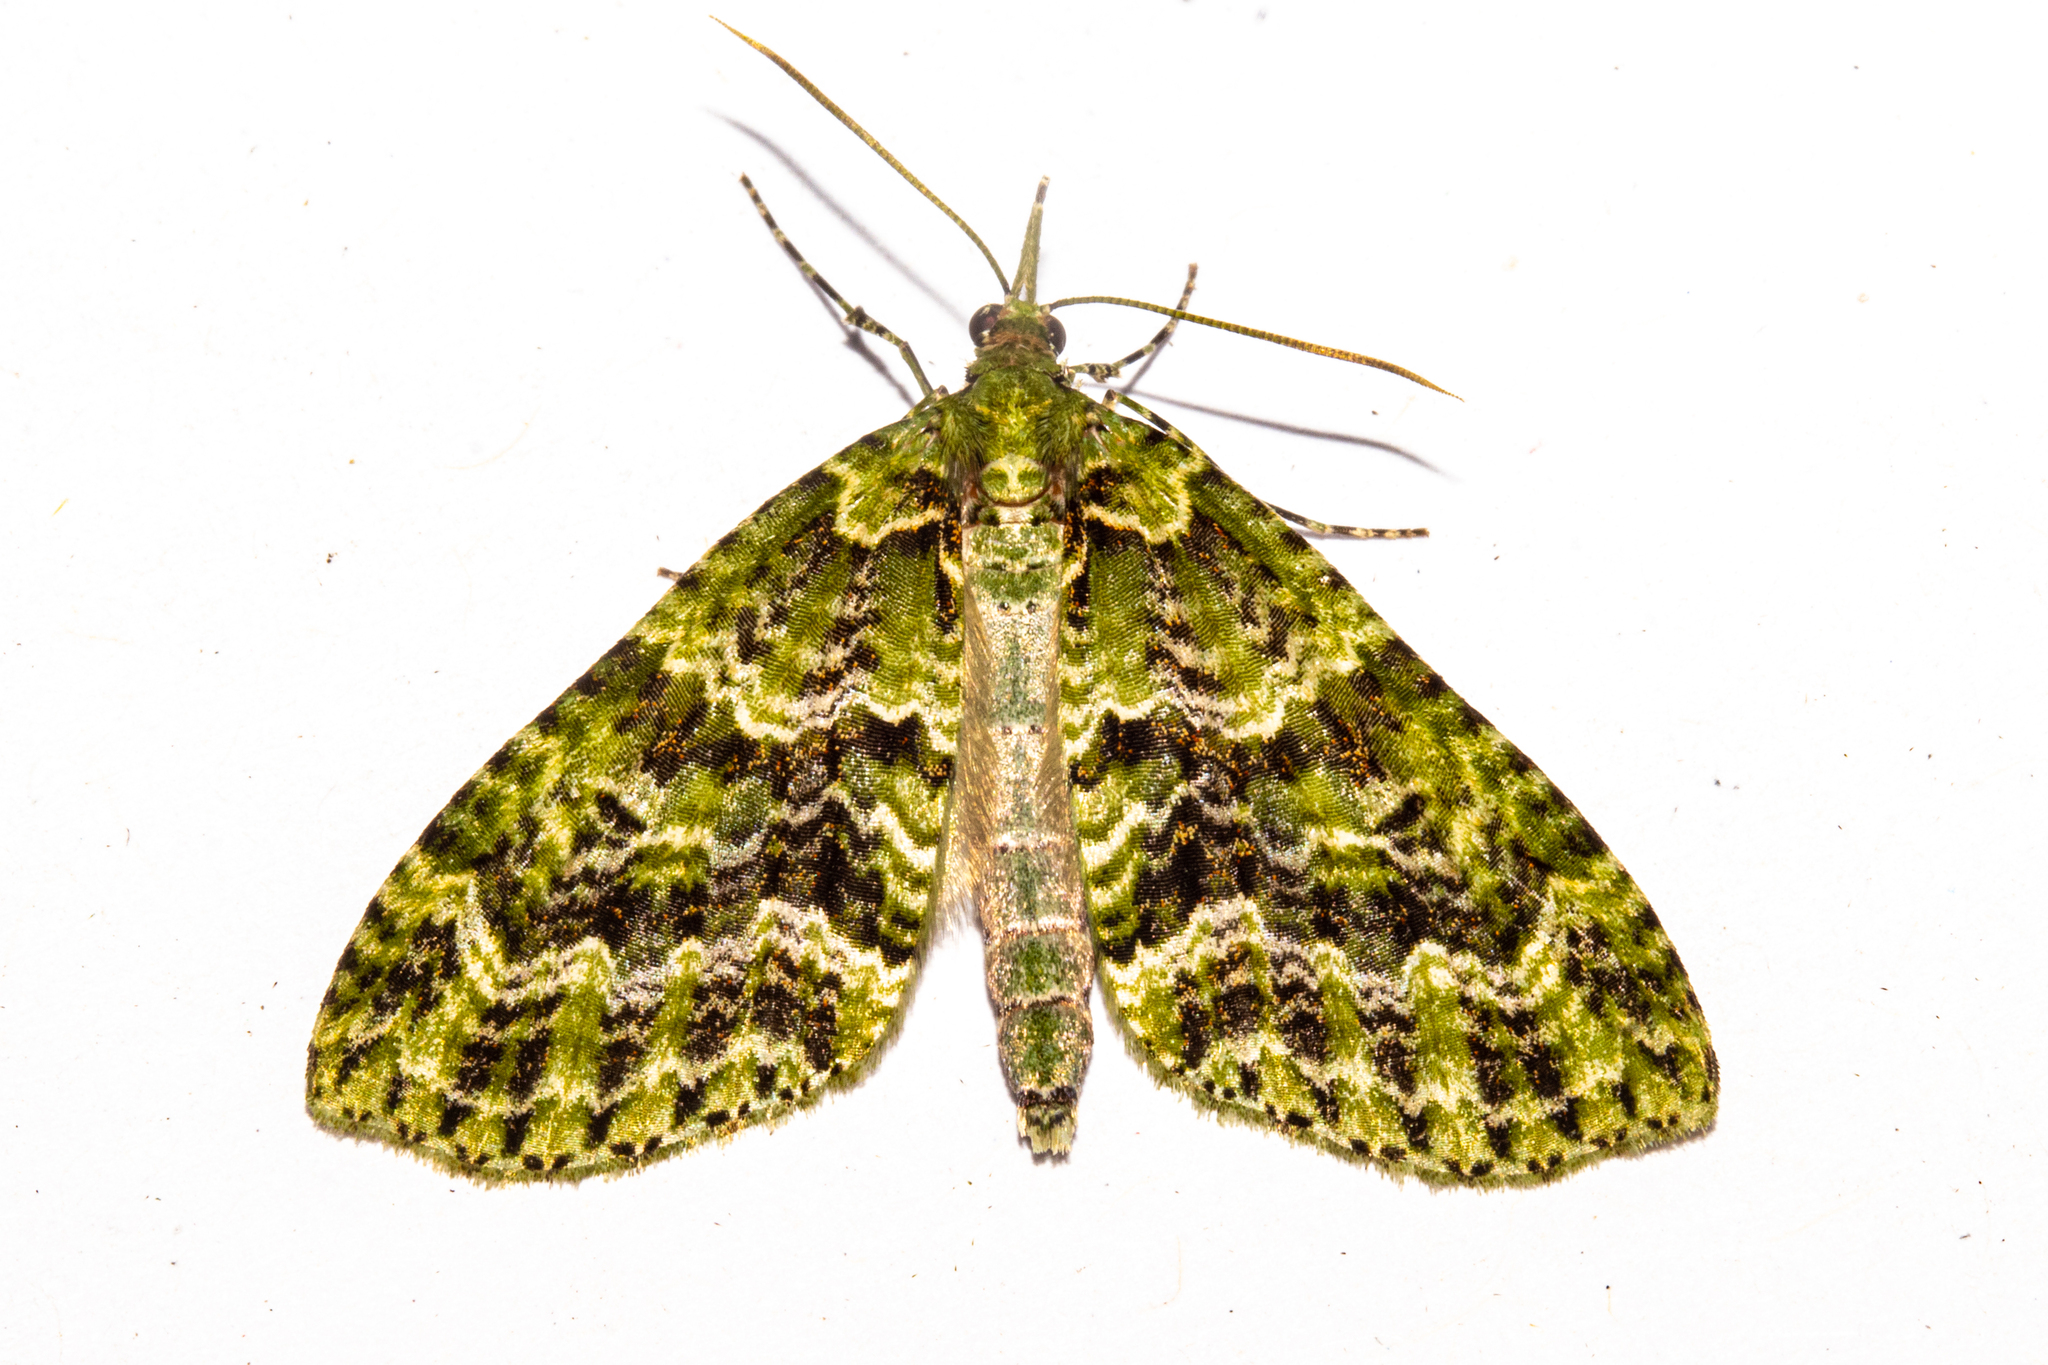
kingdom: Animalia
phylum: Arthropoda
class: Insecta
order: Lepidoptera
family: Geometridae
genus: Tatosoma
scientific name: Tatosoma tipulata
